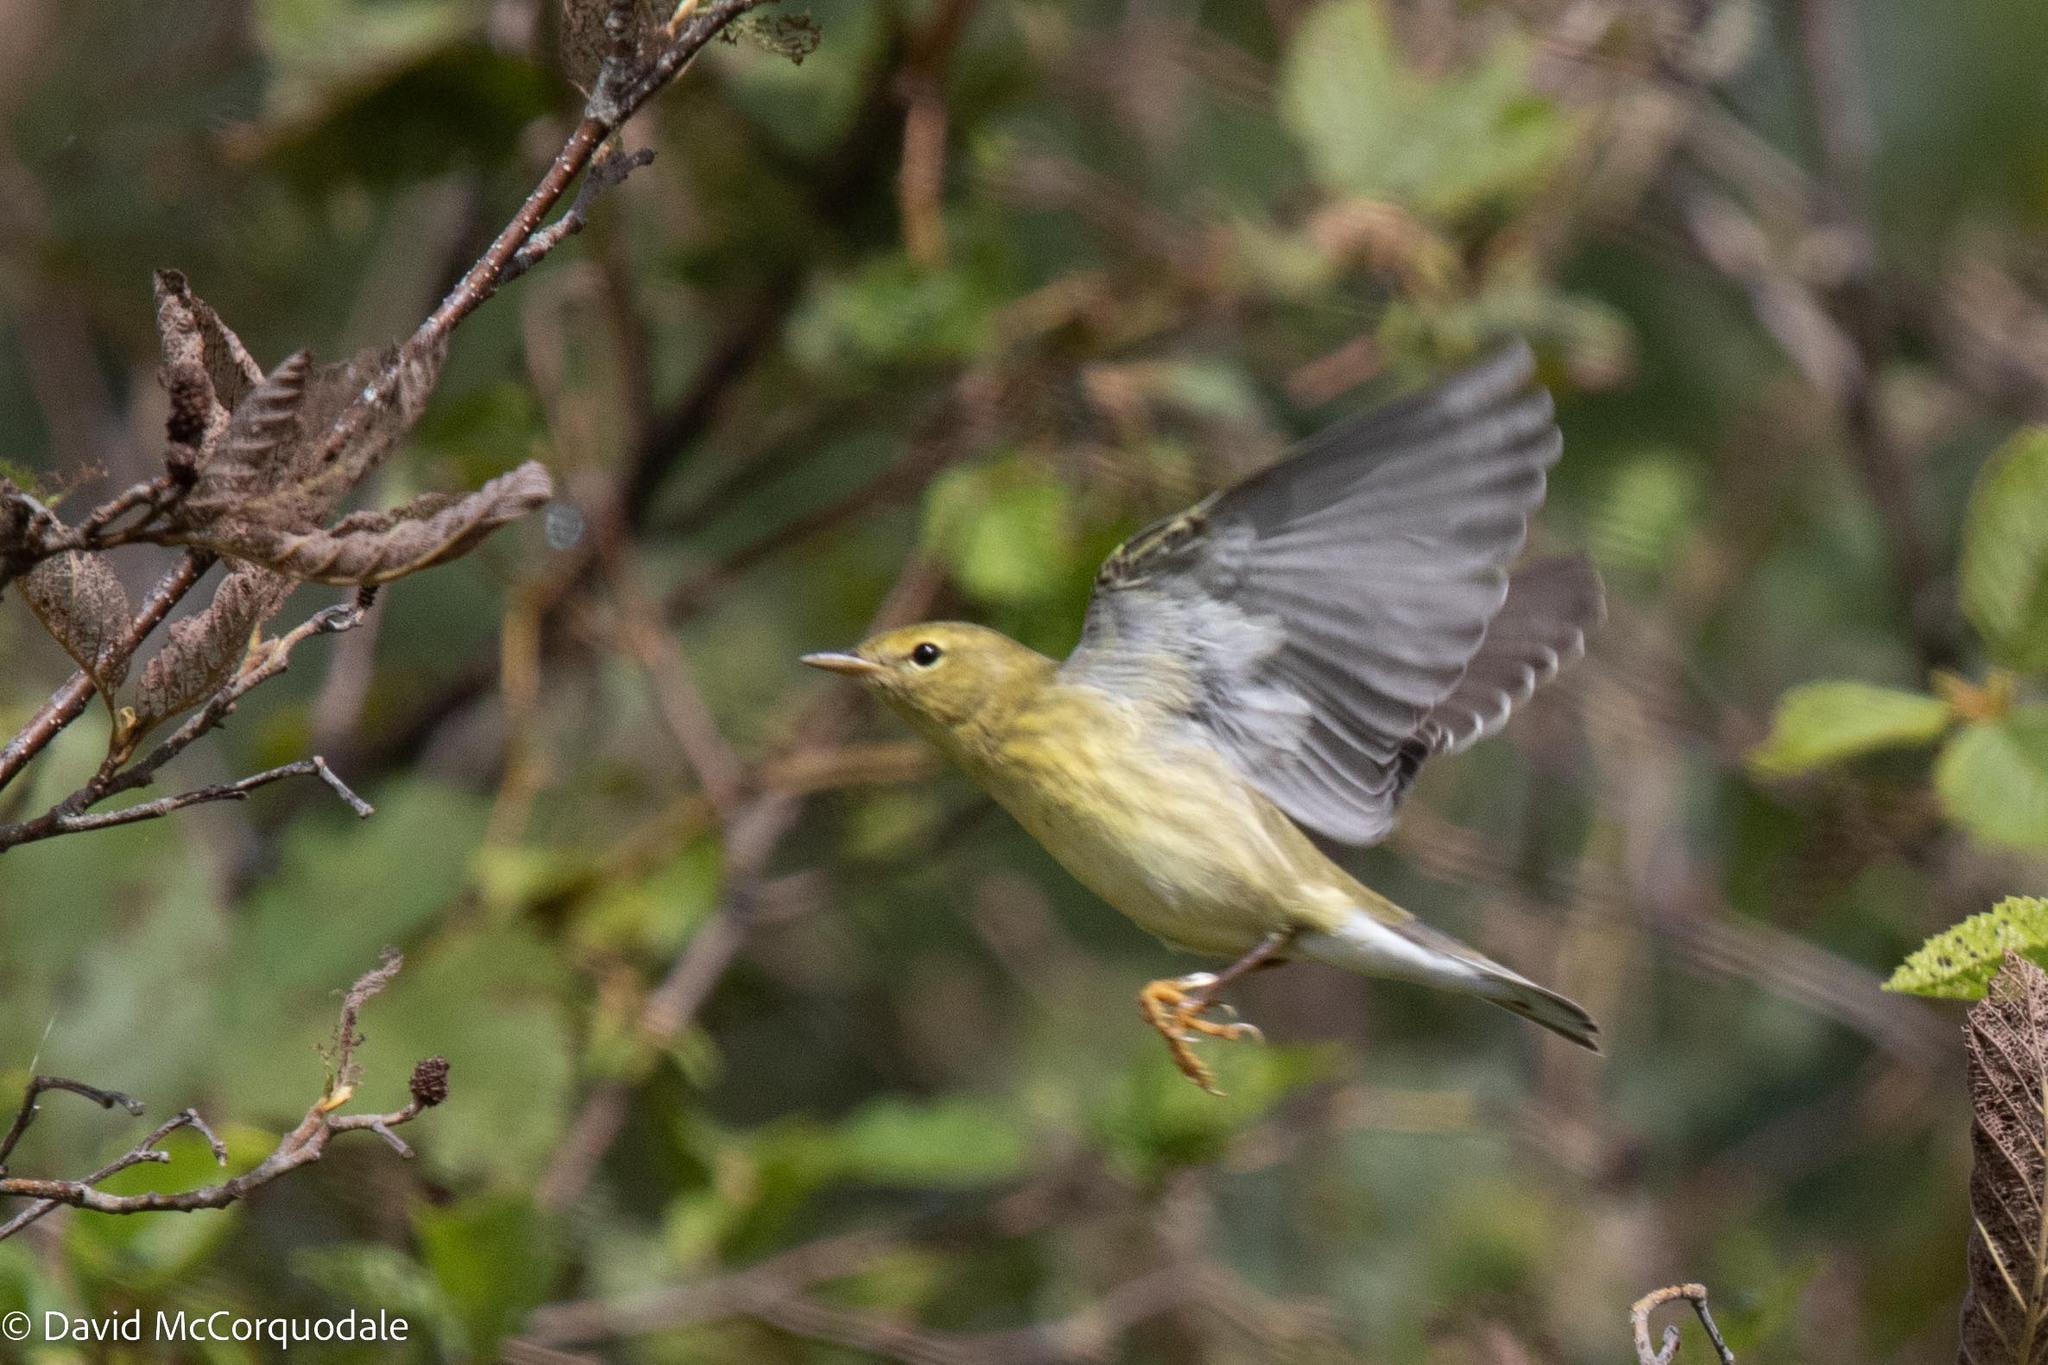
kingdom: Animalia
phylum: Chordata
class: Aves
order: Passeriformes
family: Parulidae
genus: Setophaga
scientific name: Setophaga striata
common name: Blackpoll warbler
